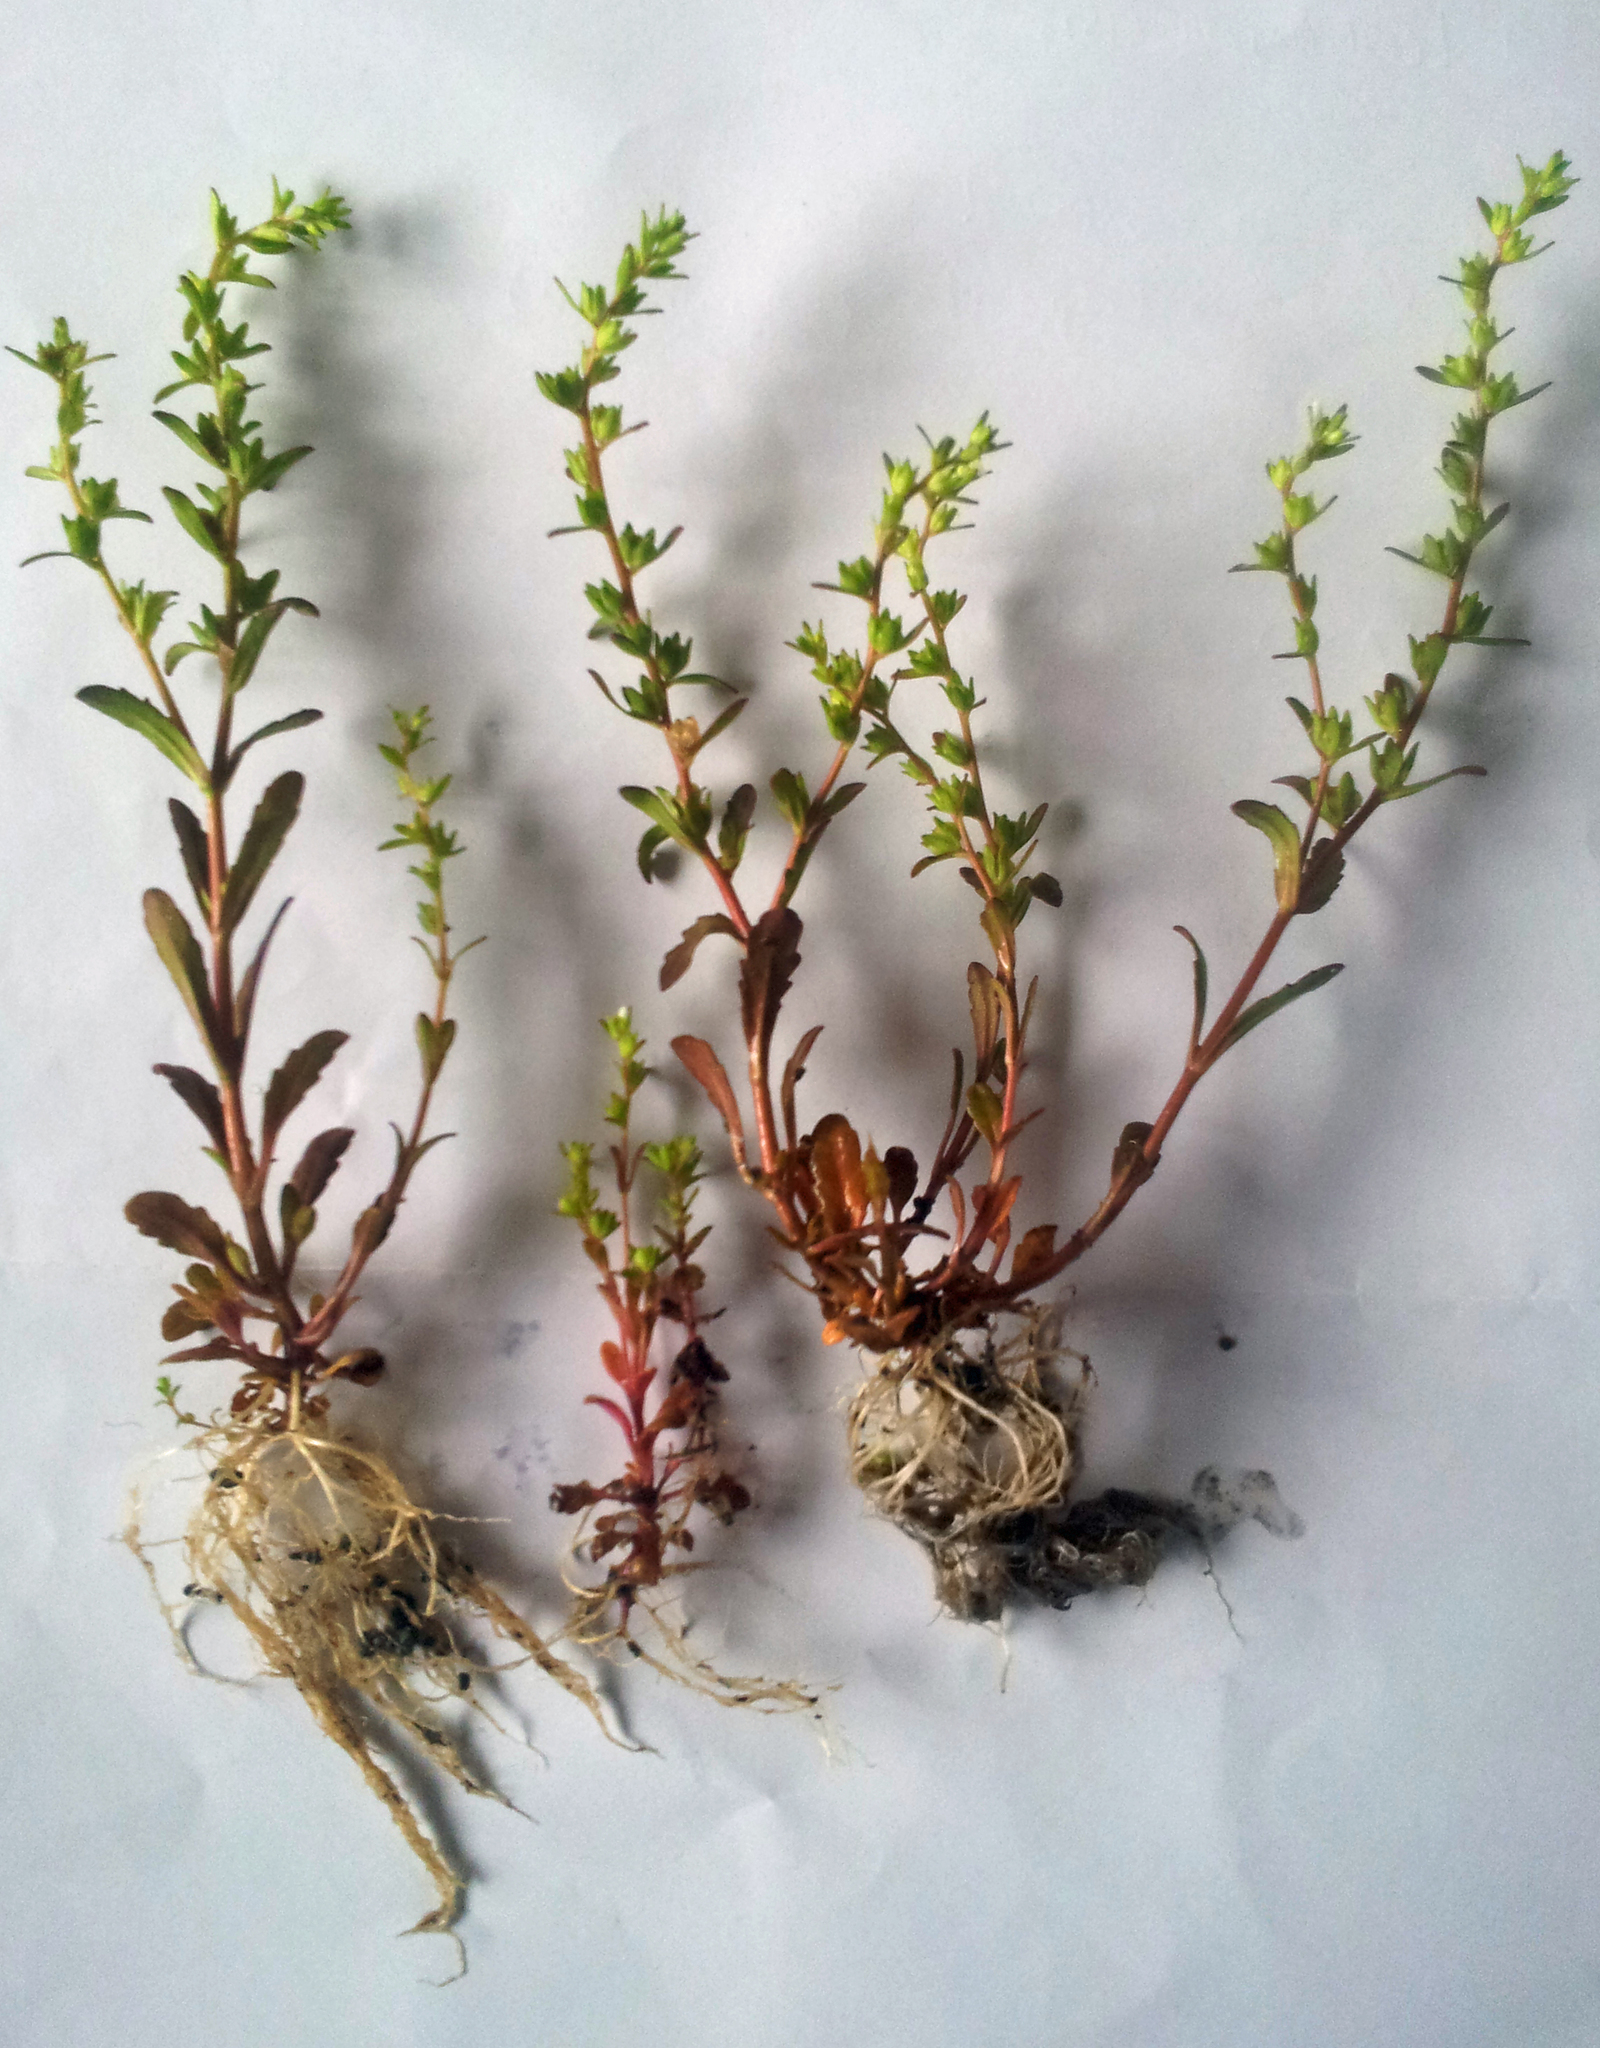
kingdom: Plantae
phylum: Tracheophyta
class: Magnoliopsida
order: Lamiales
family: Plantaginaceae
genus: Veronica
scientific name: Veronica peregrina
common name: Neckweed
